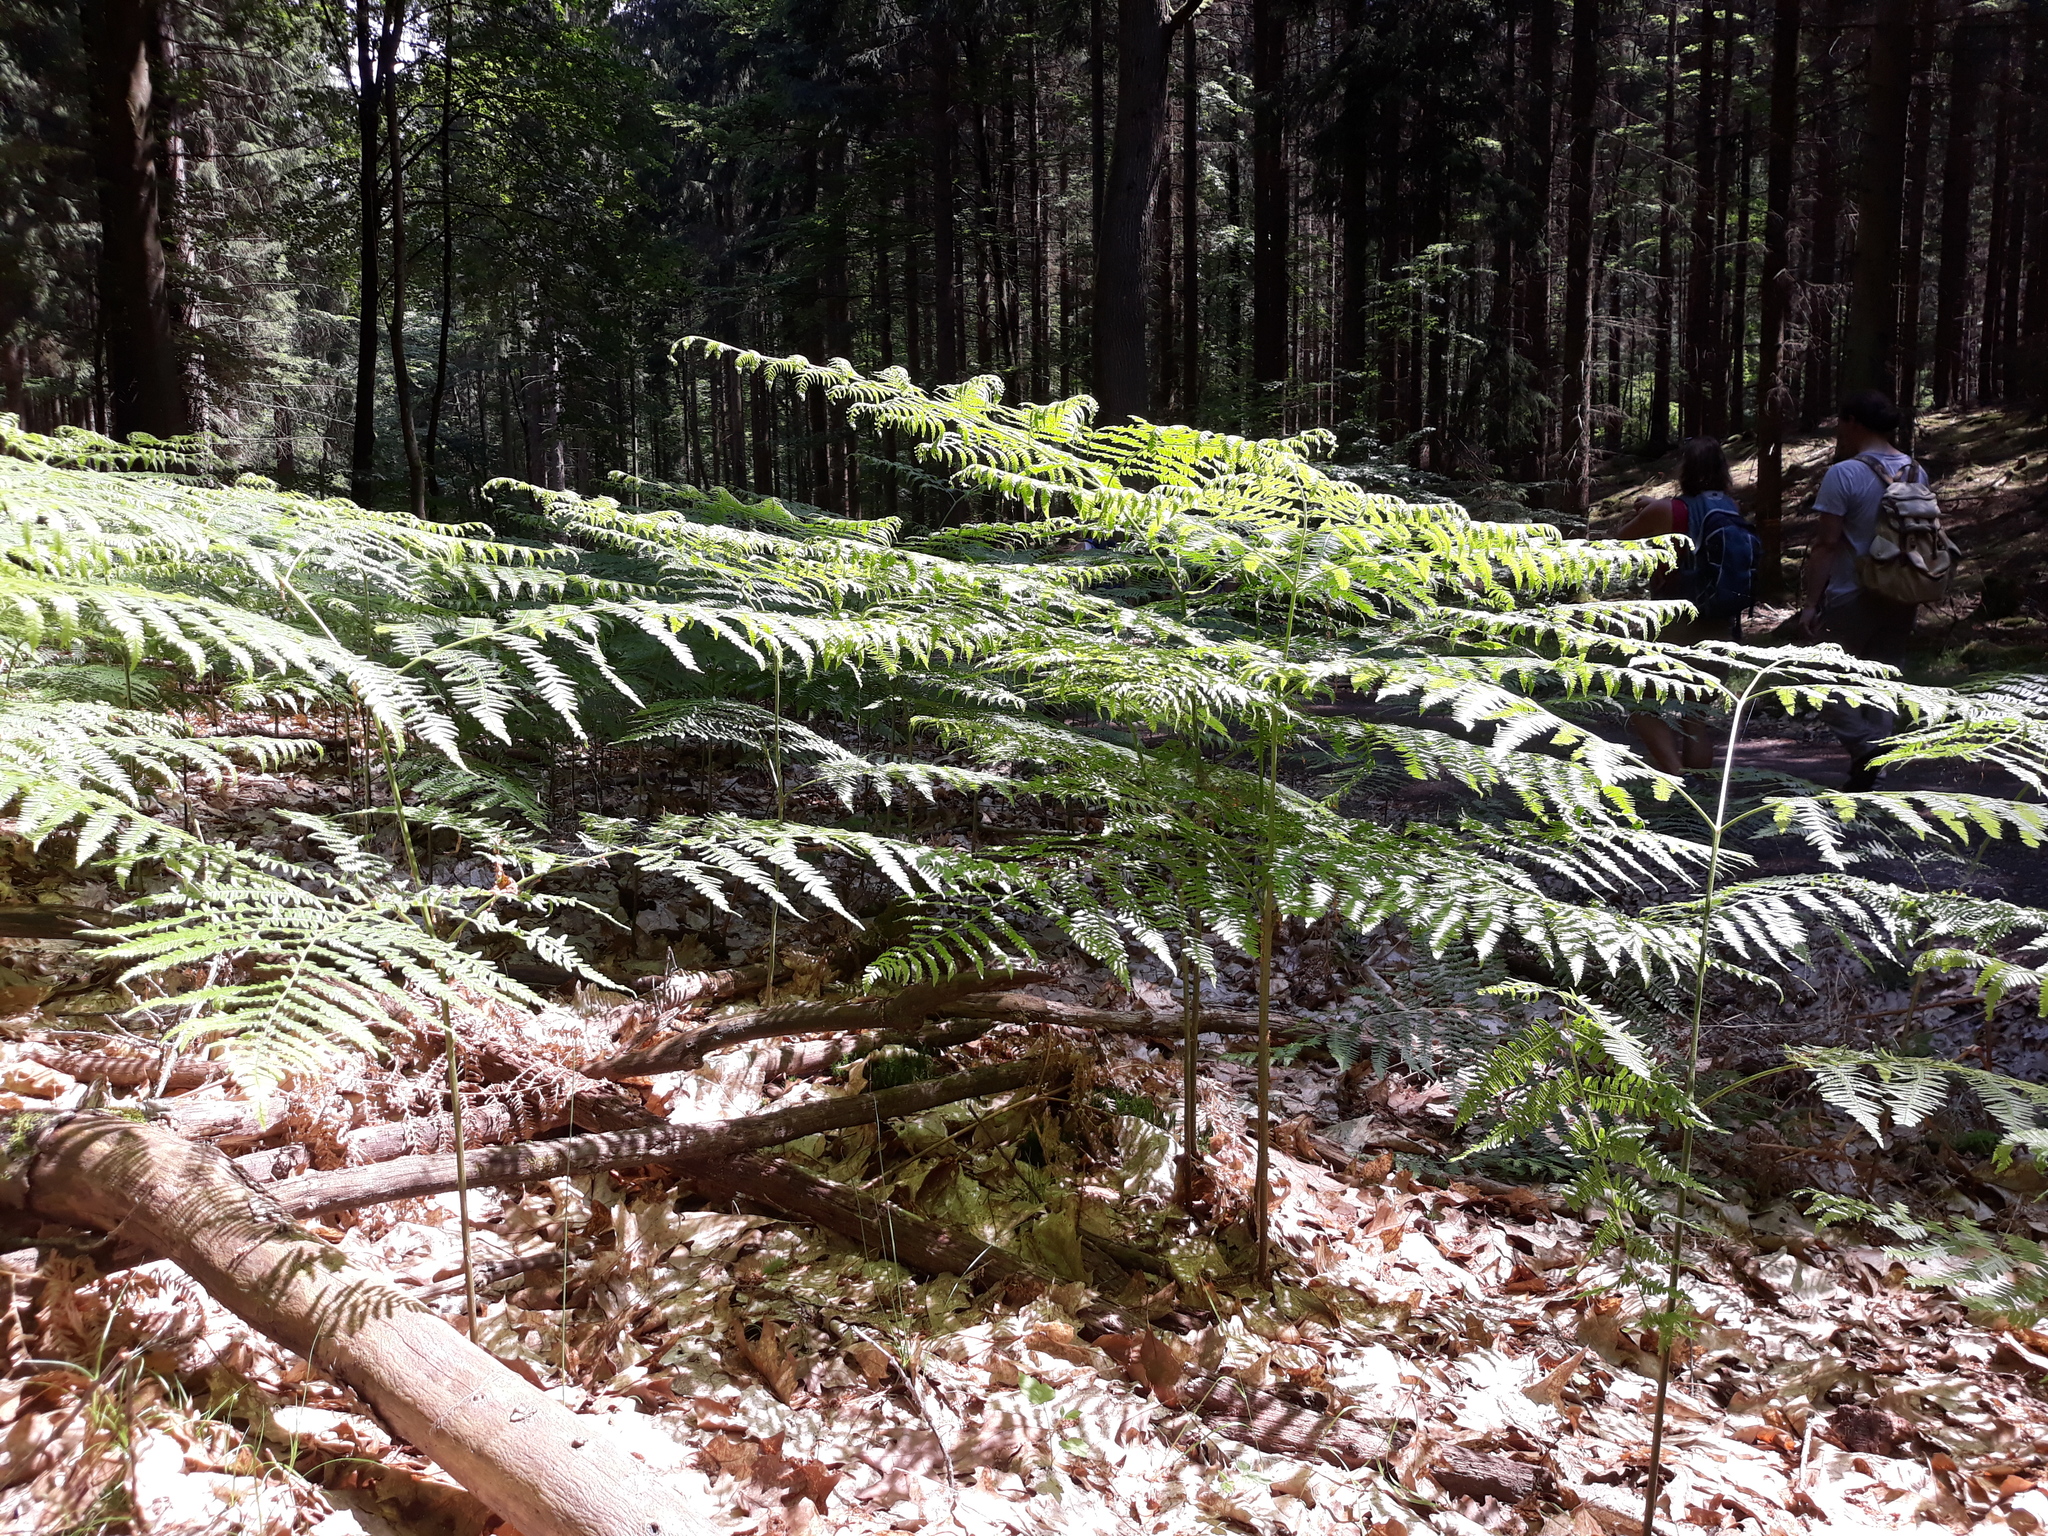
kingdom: Plantae
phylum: Tracheophyta
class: Polypodiopsida
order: Polypodiales
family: Dennstaedtiaceae
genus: Pteridium
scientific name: Pteridium aquilinum
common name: Bracken
